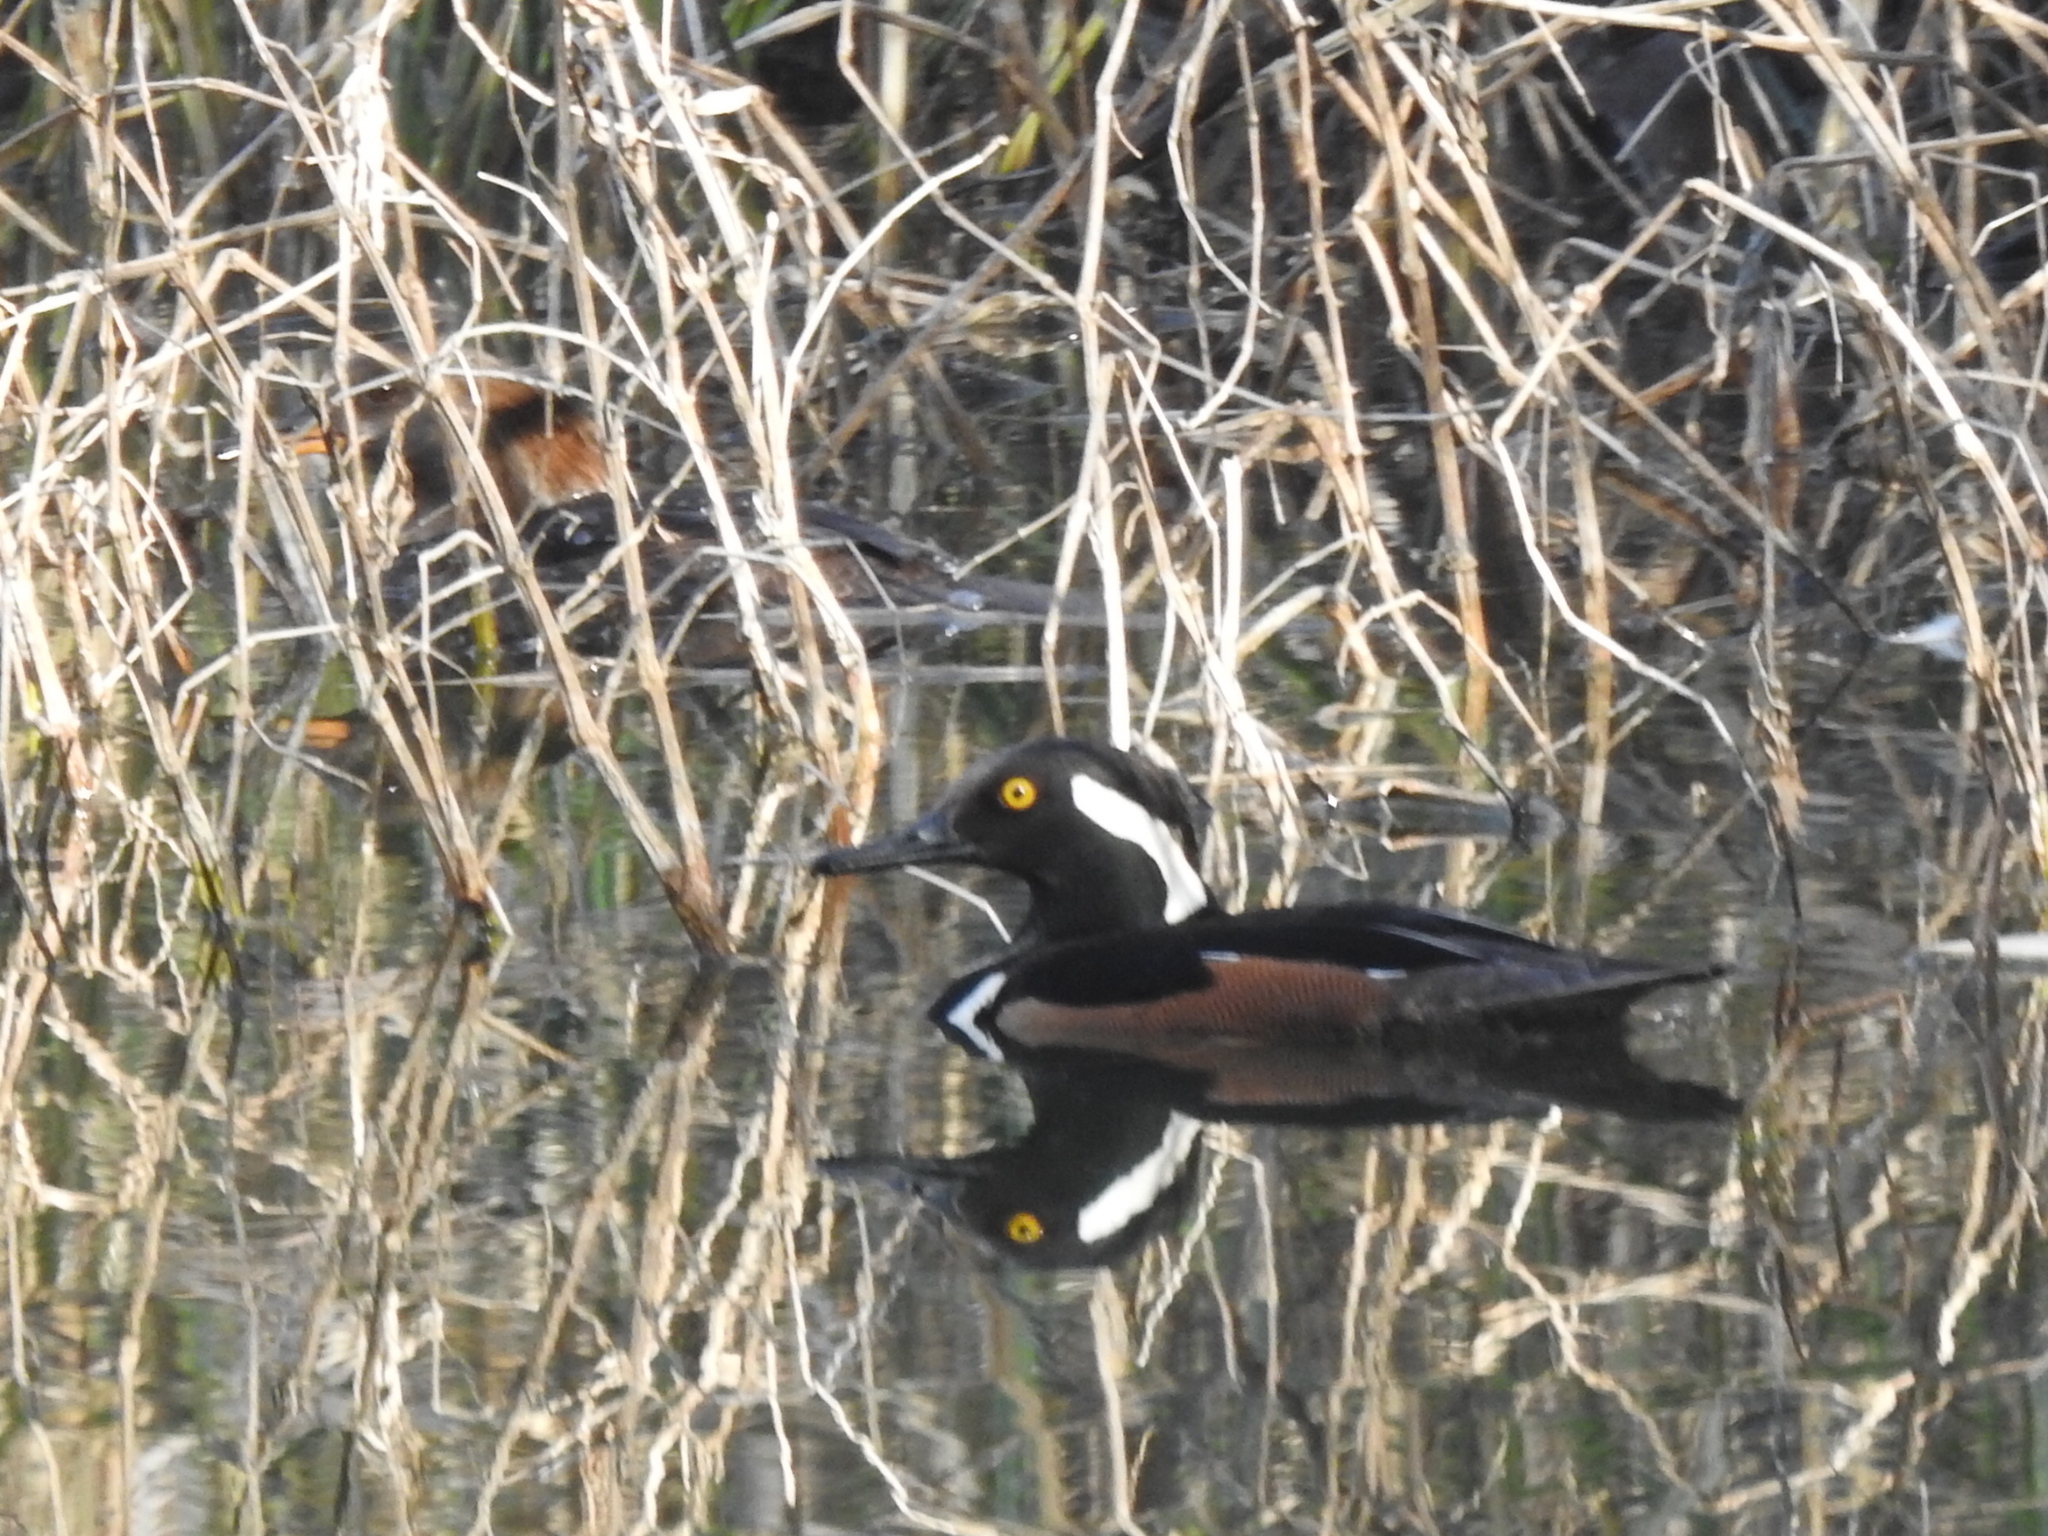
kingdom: Animalia
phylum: Chordata
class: Aves
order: Anseriformes
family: Anatidae
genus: Lophodytes
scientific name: Lophodytes cucullatus
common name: Hooded merganser
